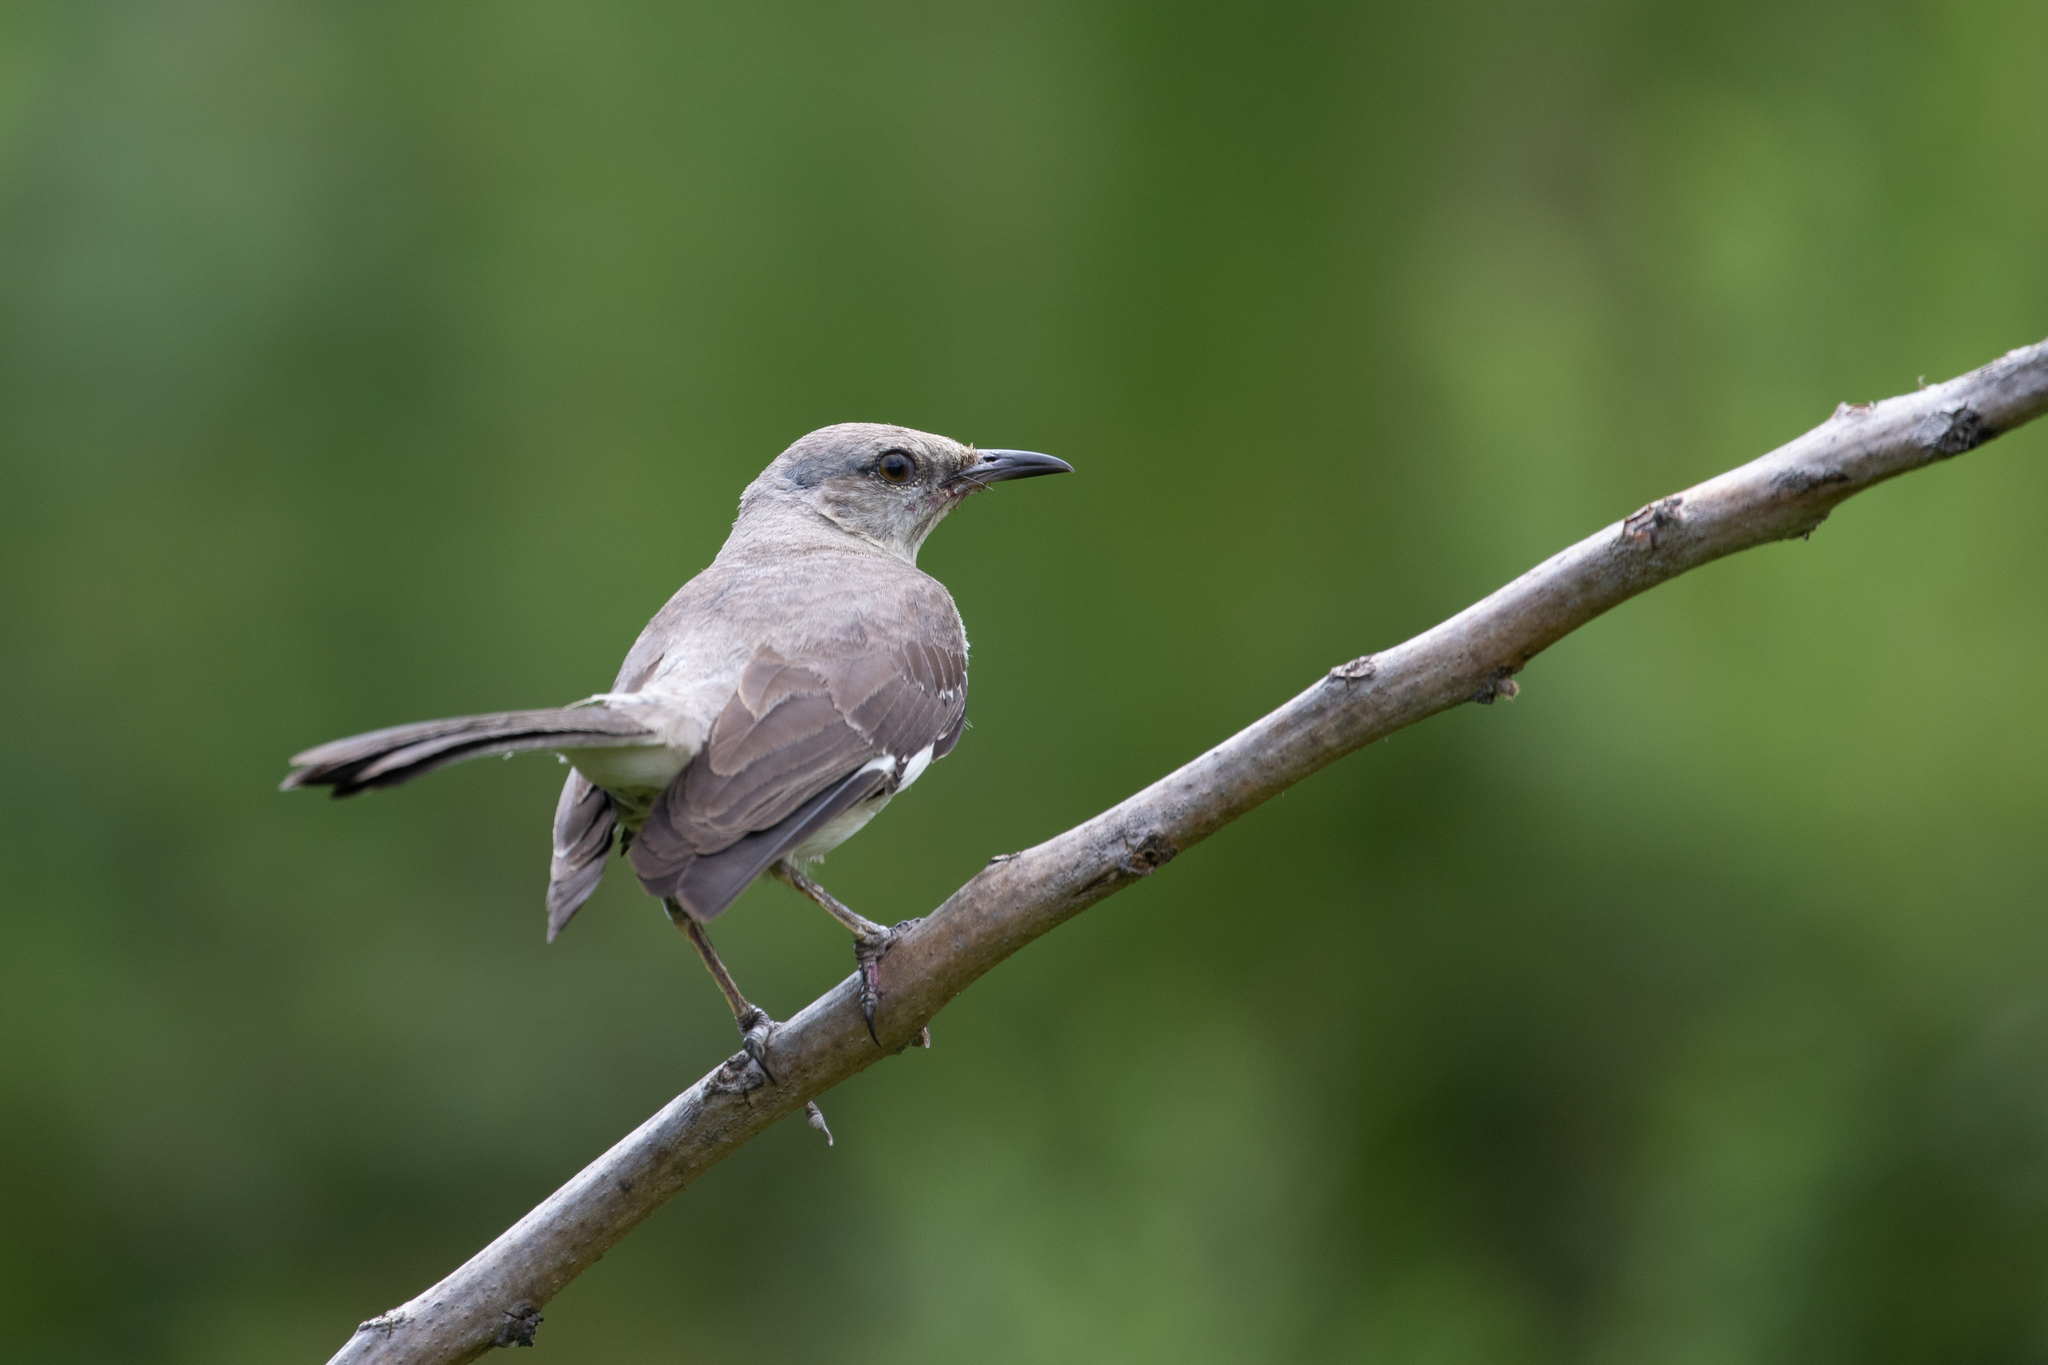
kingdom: Animalia
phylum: Chordata
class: Aves
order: Passeriformes
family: Mimidae
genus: Mimus
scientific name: Mimus polyglottos
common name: Northern mockingbird
